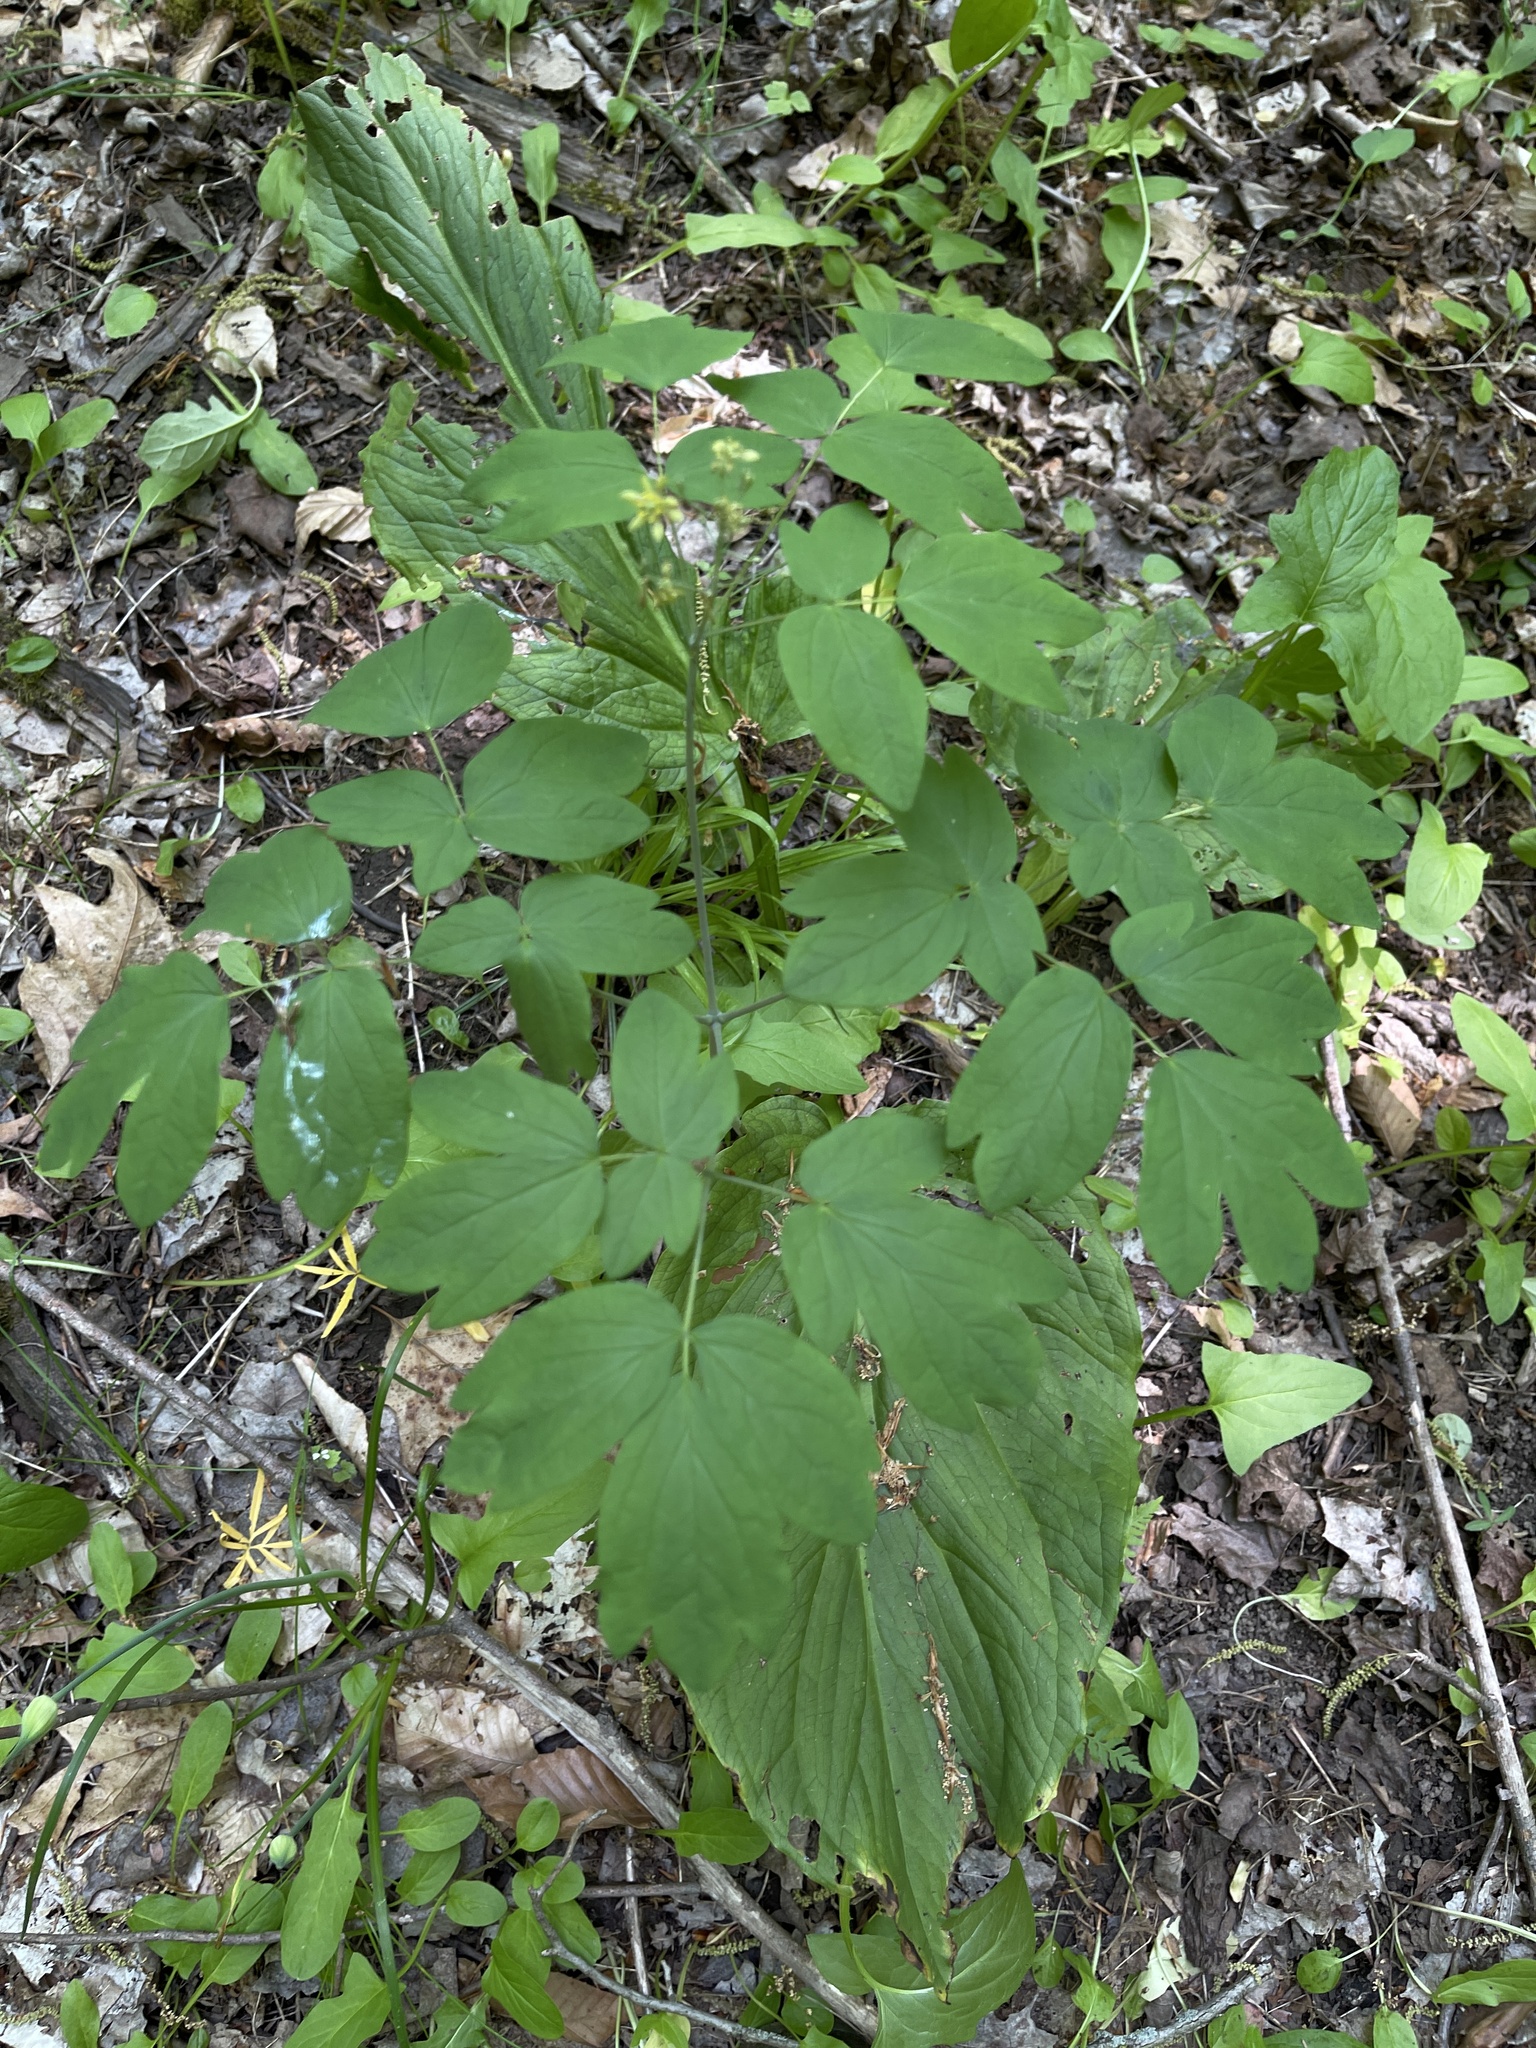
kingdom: Plantae
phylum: Tracheophyta
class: Magnoliopsida
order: Ranunculales
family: Berberidaceae
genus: Caulophyllum
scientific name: Caulophyllum thalictroides
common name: Blue cohosh
